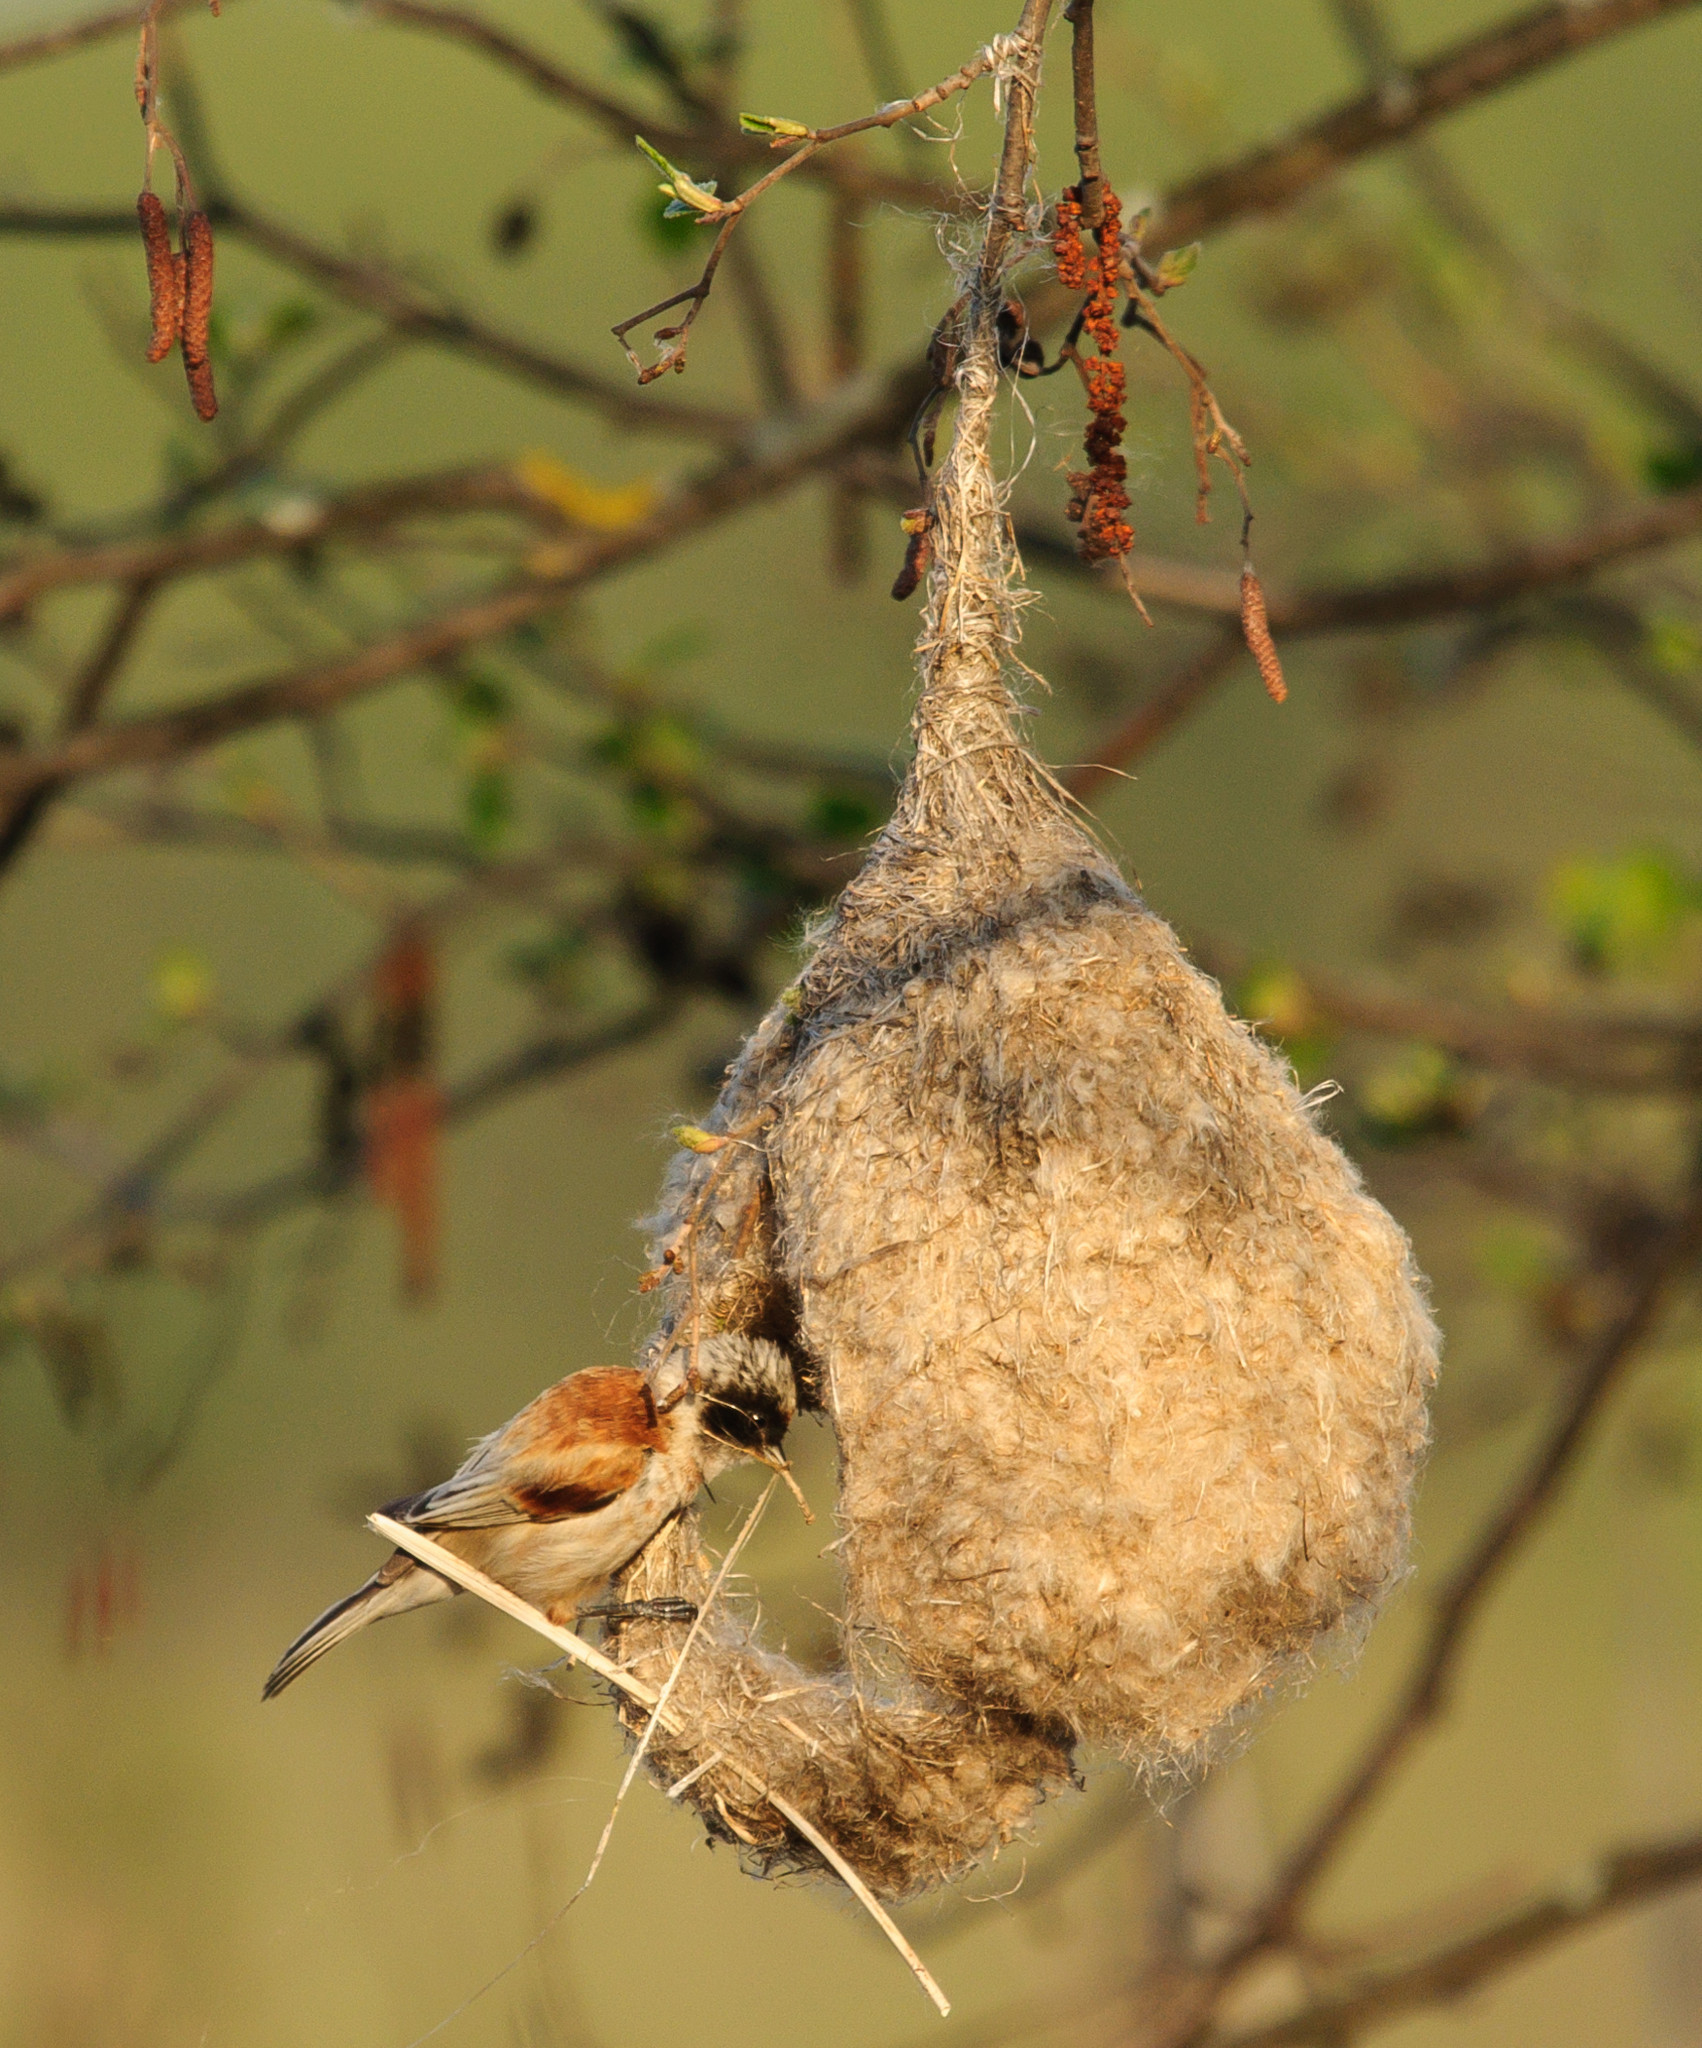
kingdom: Animalia
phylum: Chordata
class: Aves
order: Passeriformes
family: Remizidae
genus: Remiz
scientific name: Remiz pendulinus
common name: Eurasian penduline tit
